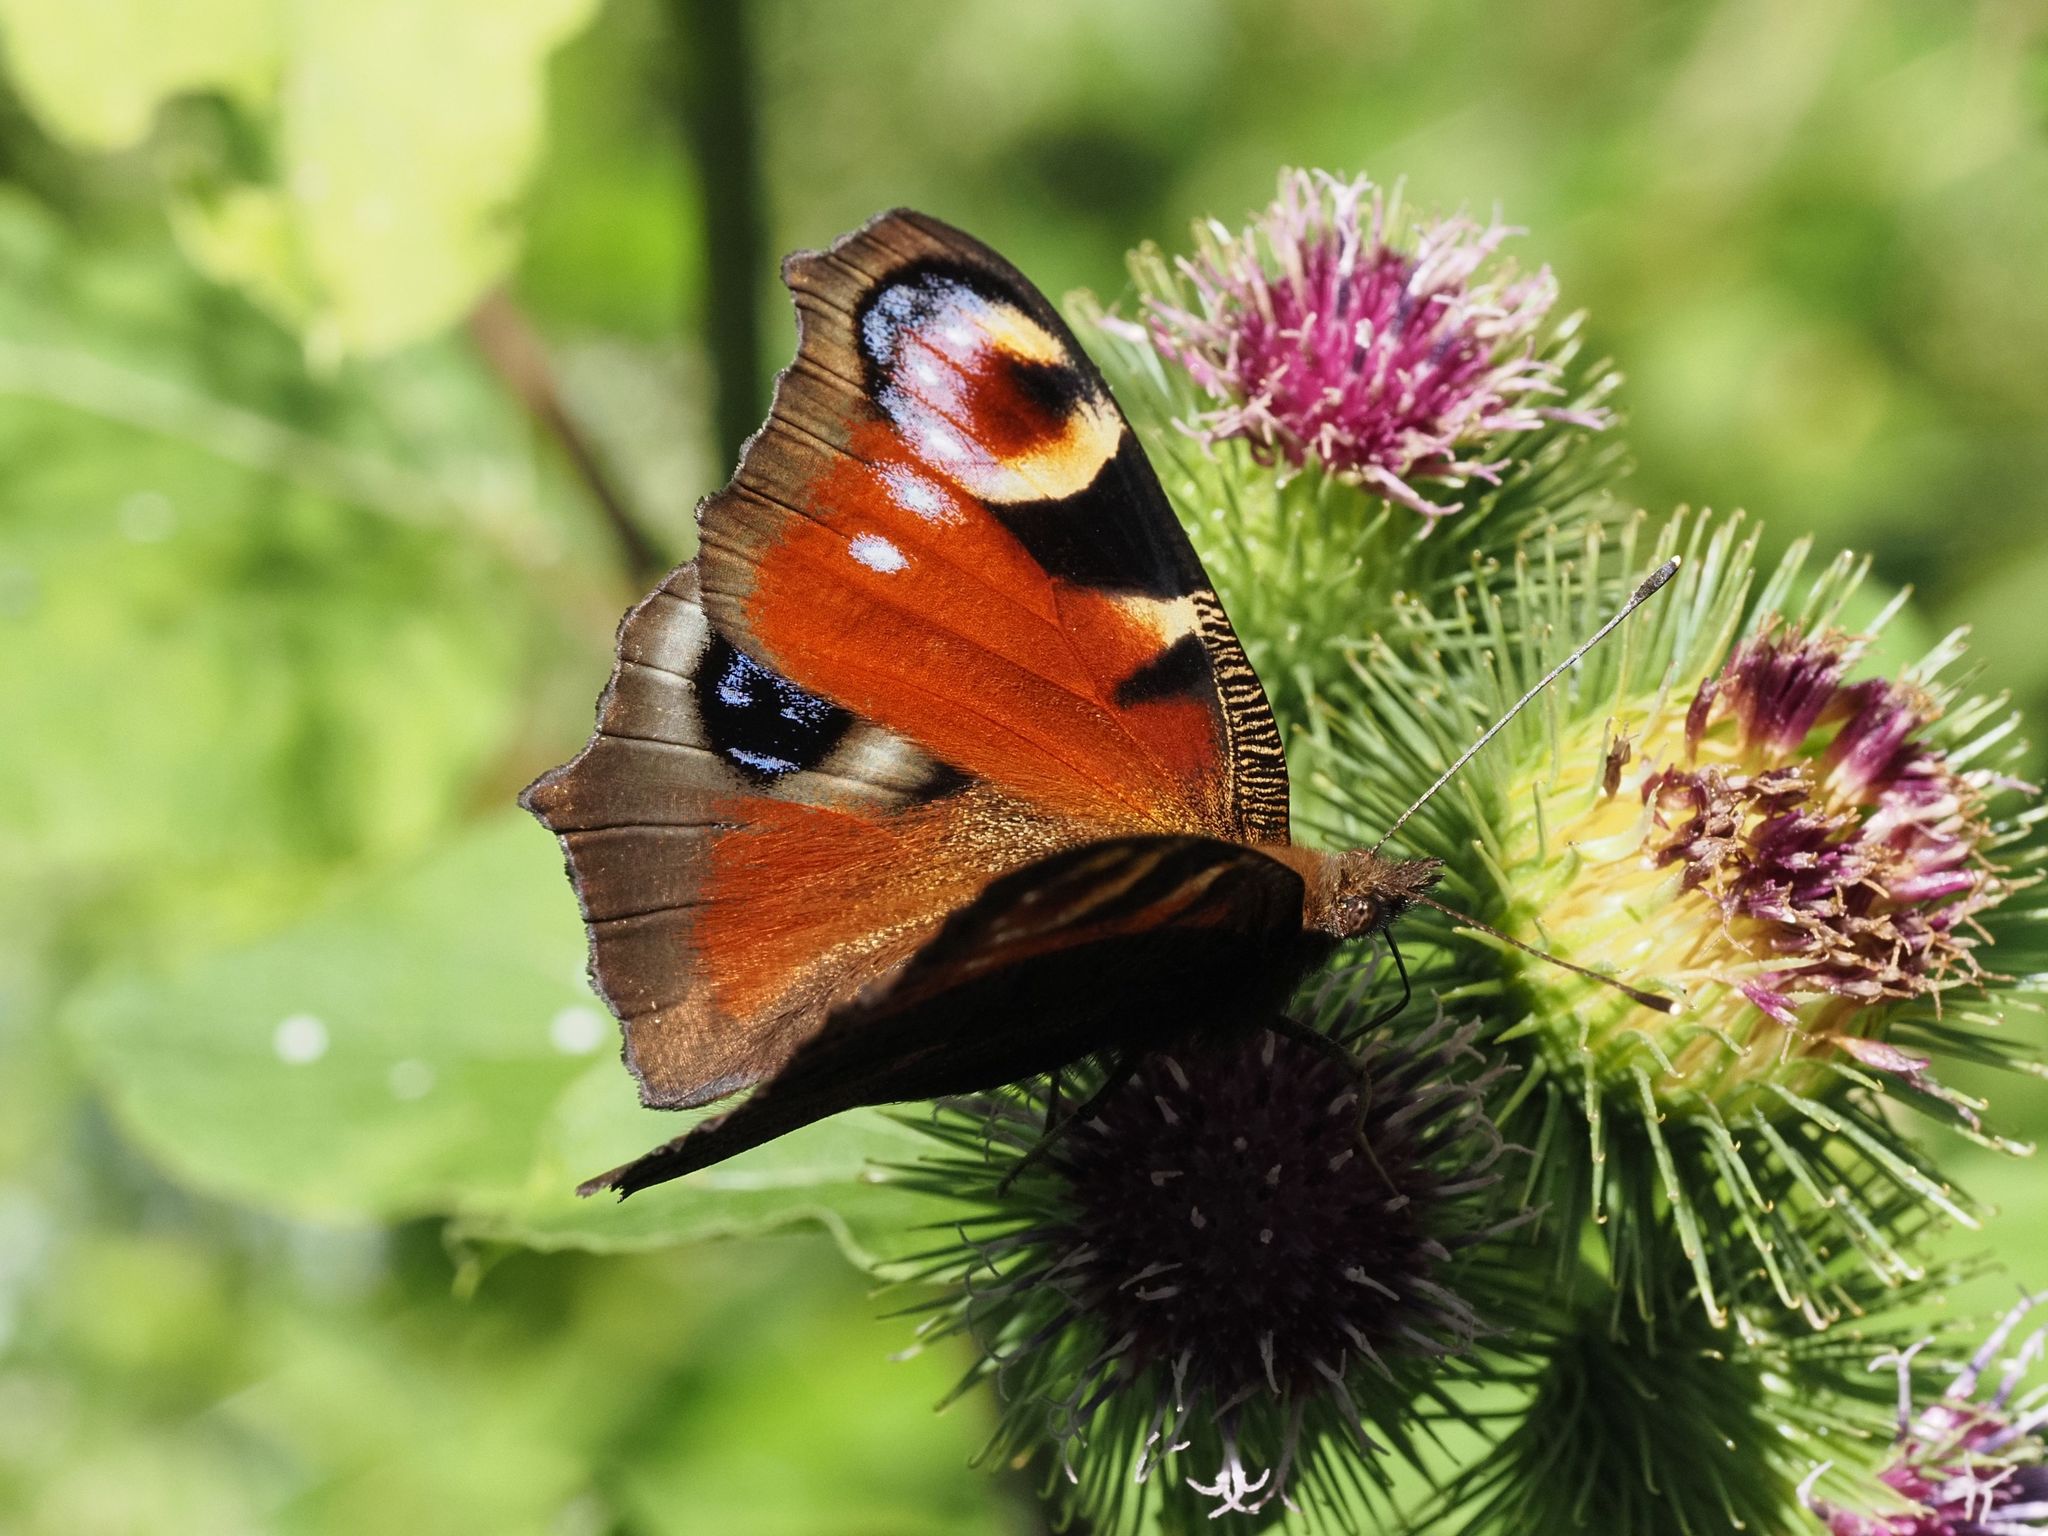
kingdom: Animalia
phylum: Arthropoda
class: Insecta
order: Lepidoptera
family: Nymphalidae
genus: Aglais
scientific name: Aglais io
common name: Peacock
